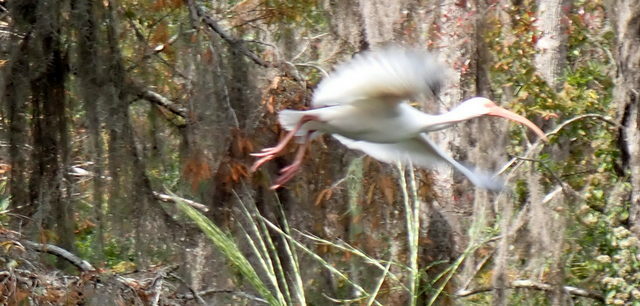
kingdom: Animalia
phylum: Chordata
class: Aves
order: Pelecaniformes
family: Threskiornithidae
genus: Eudocimus
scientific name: Eudocimus albus
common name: White ibis
